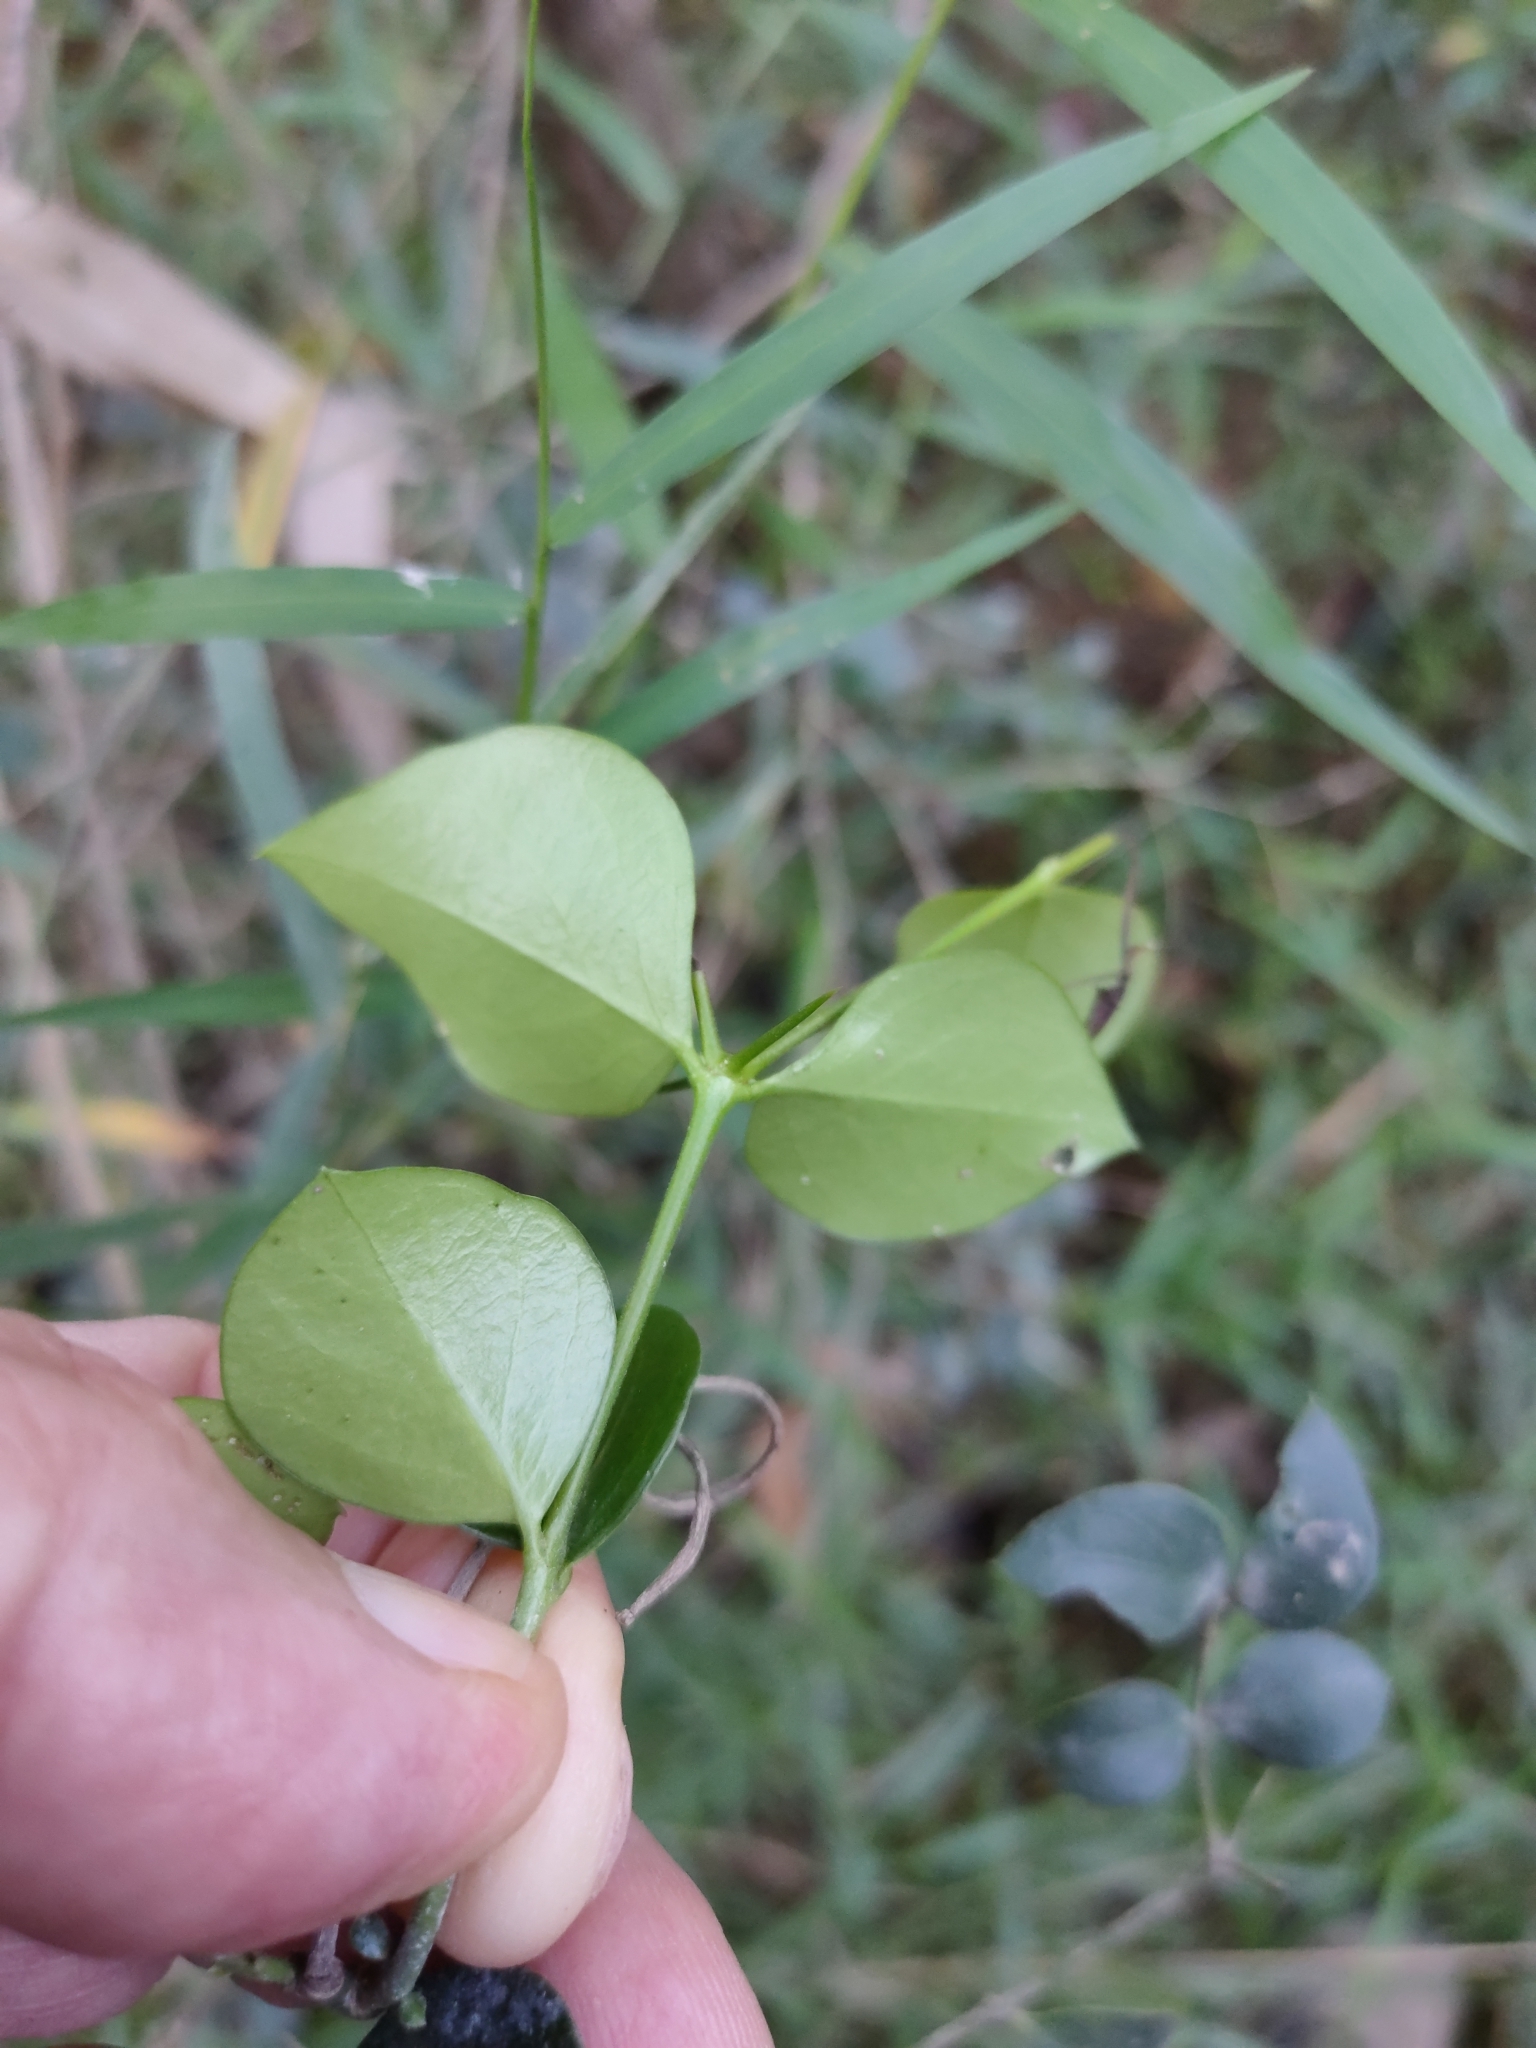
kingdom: Plantae
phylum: Tracheophyta
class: Magnoliopsida
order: Gentianales
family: Apocynaceae
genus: Carissa
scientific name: Carissa ovata
